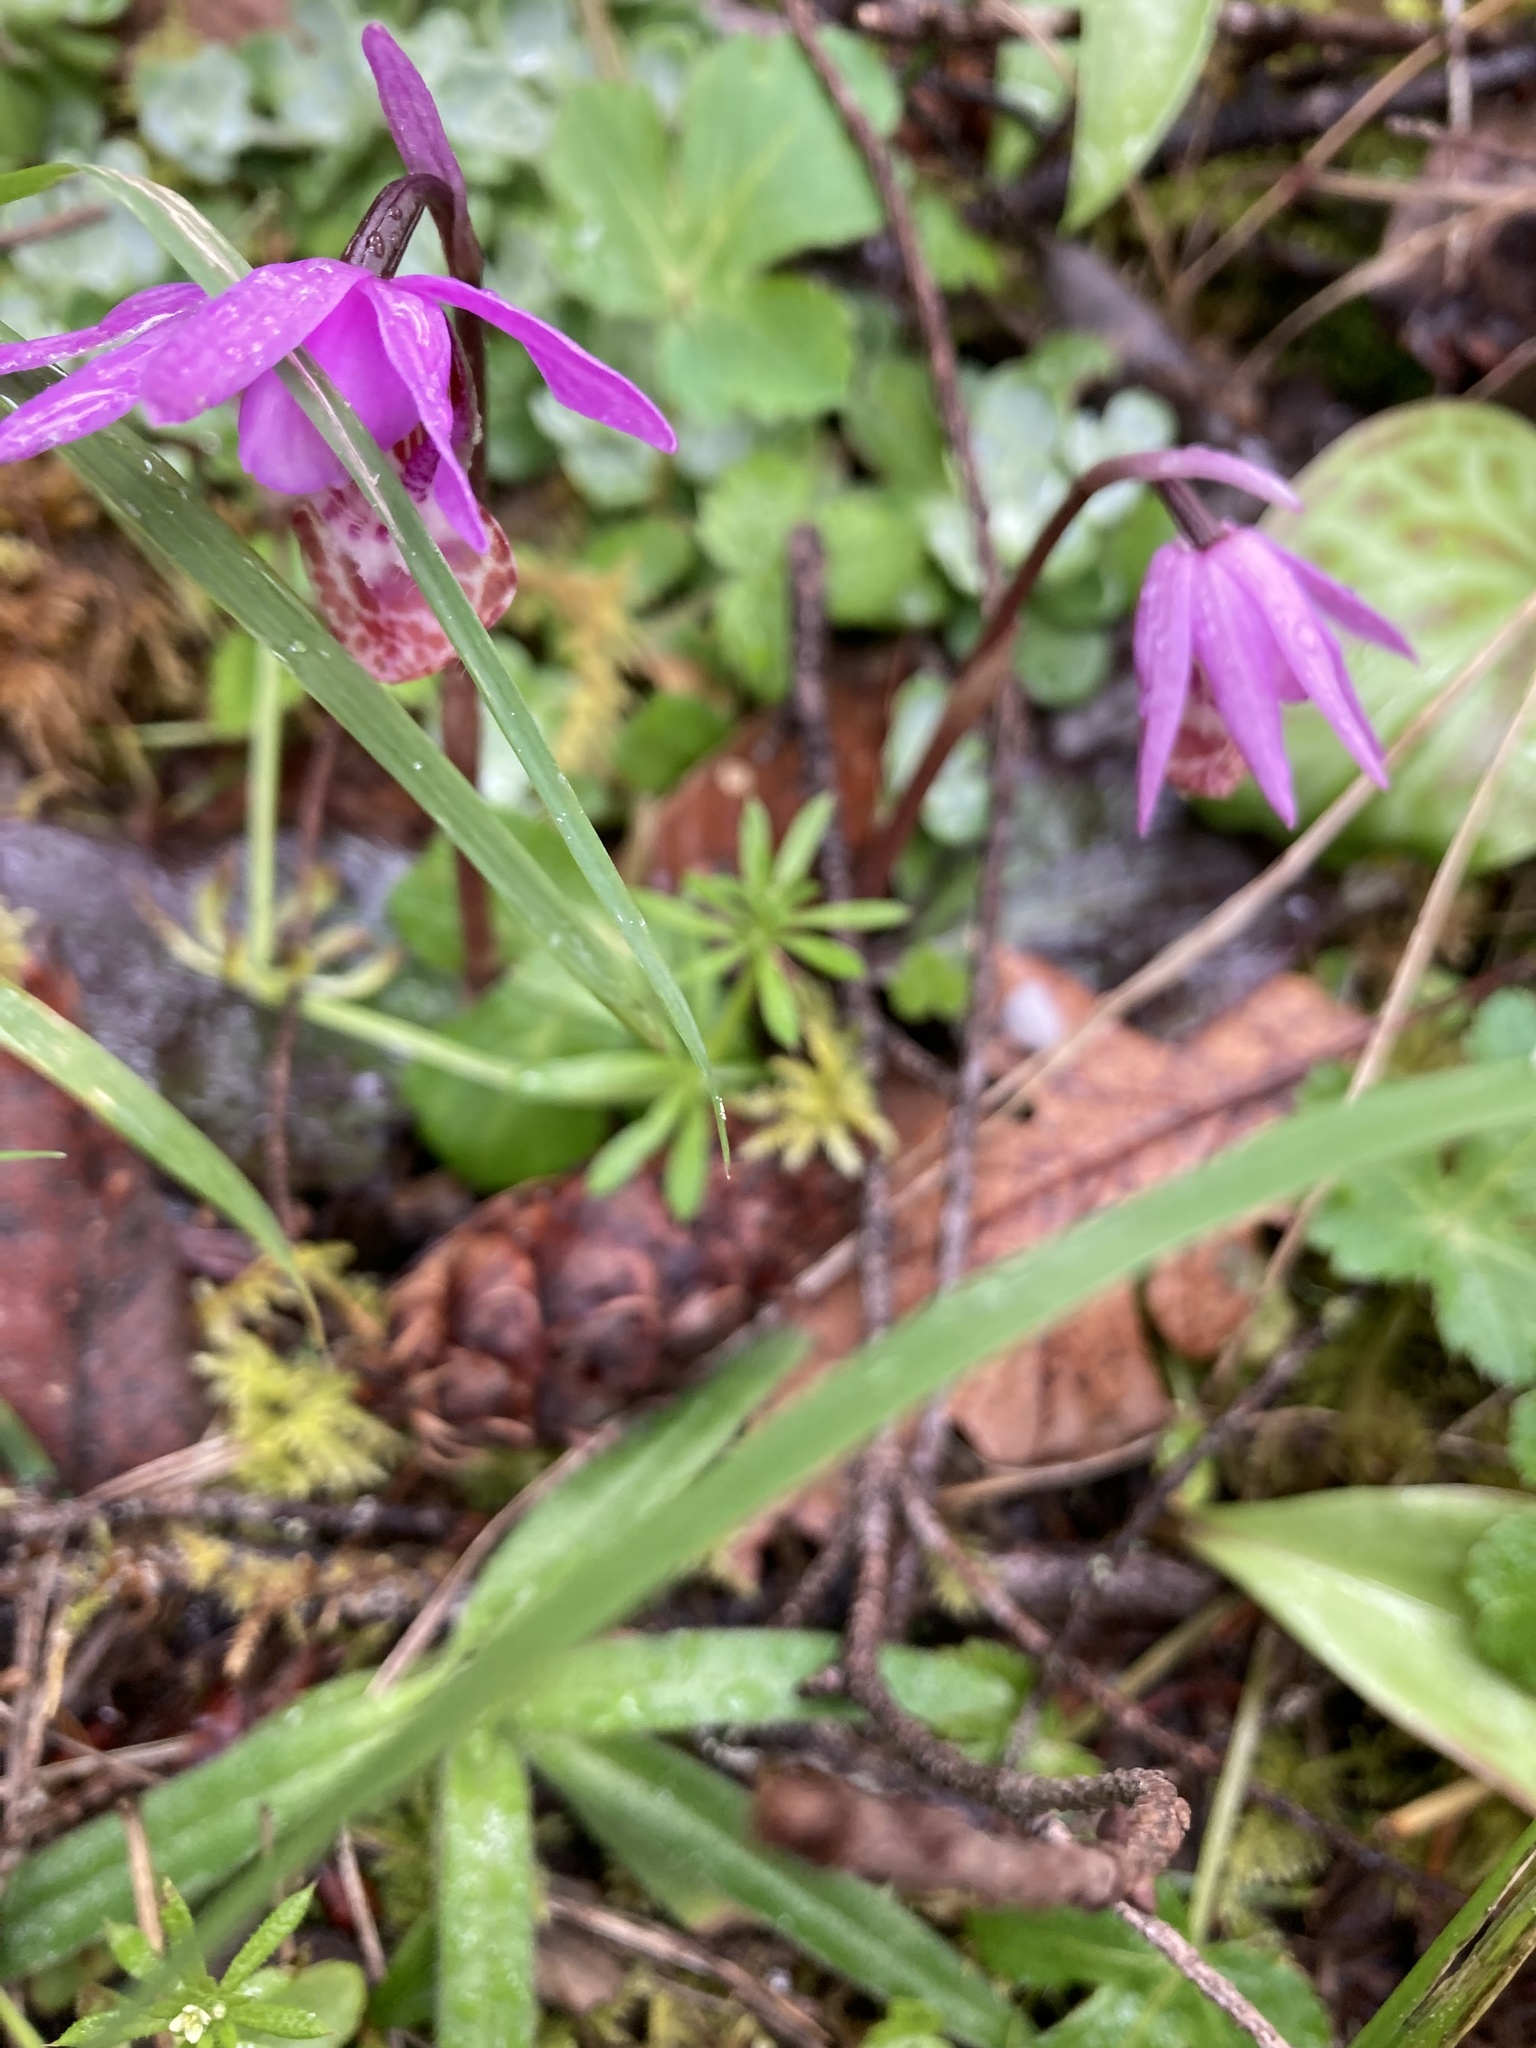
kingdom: Plantae
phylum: Tracheophyta
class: Liliopsida
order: Asparagales
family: Orchidaceae
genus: Calypso
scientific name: Calypso bulbosa
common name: Calypso
